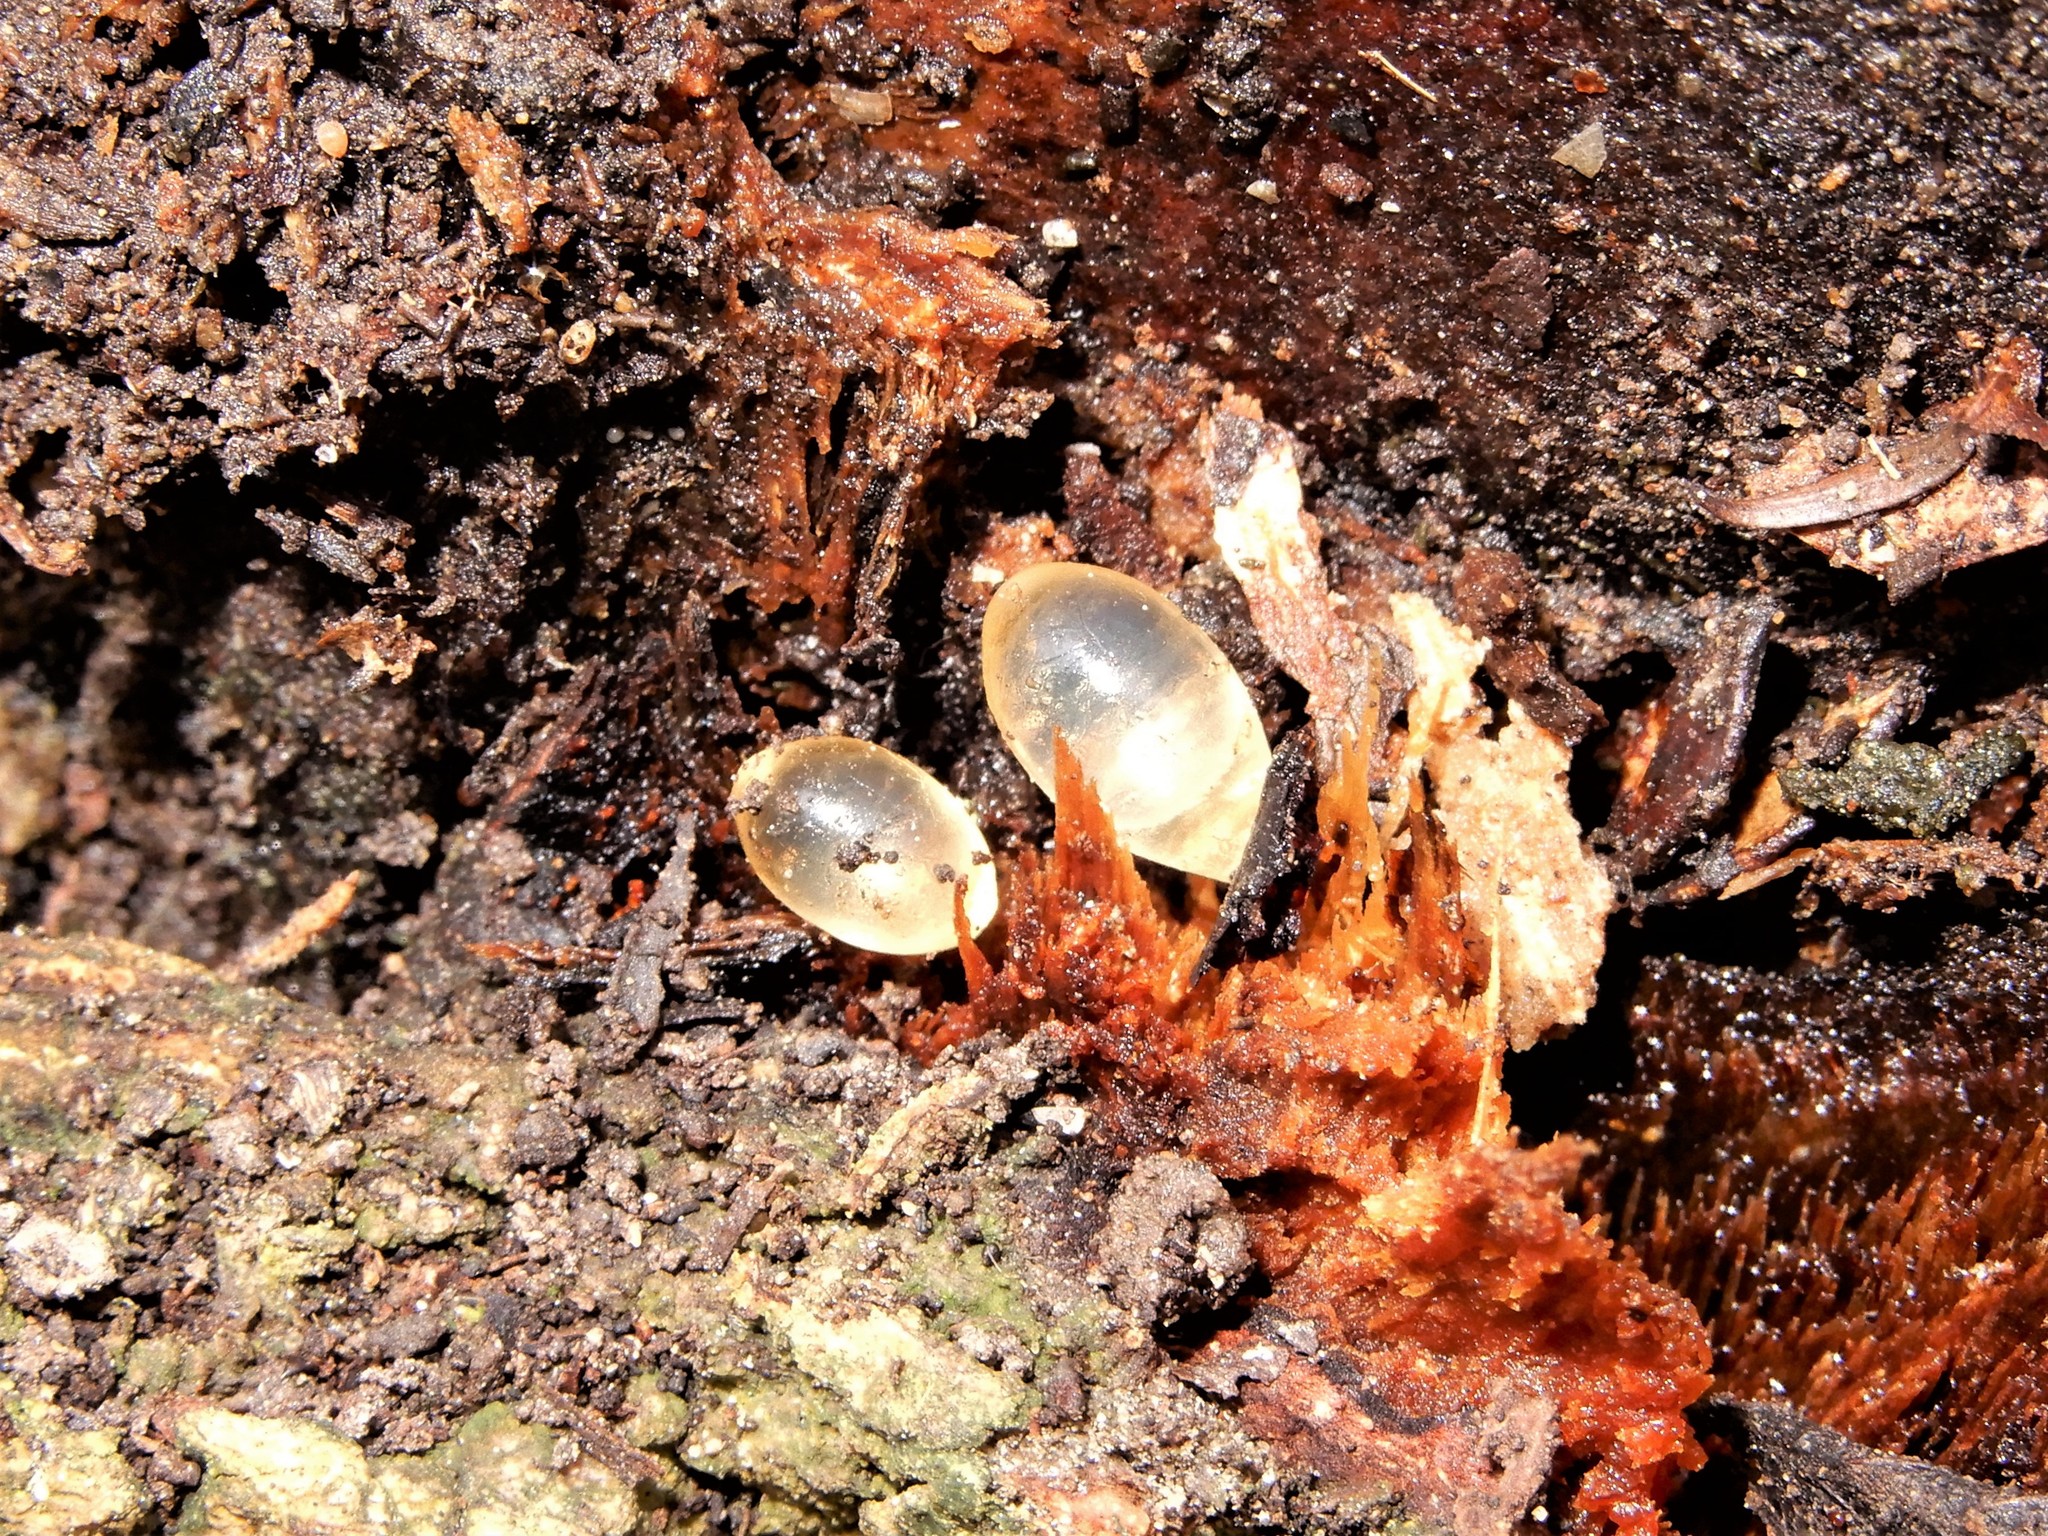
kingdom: Animalia
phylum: Mollusca
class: Gastropoda
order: Stylommatophora
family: Limacidae
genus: Limacus
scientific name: Limacus flavus
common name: Yellow gardenslug
